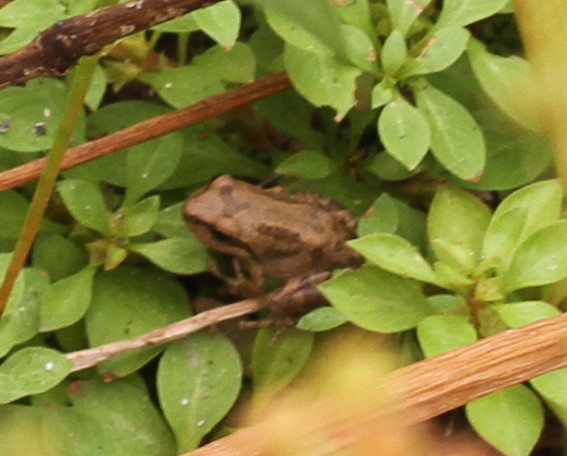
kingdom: Animalia
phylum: Chordata
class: Amphibia
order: Anura
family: Hylidae
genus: Pseudacris
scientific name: Pseudacris regilla
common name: Pacific chorus frog
